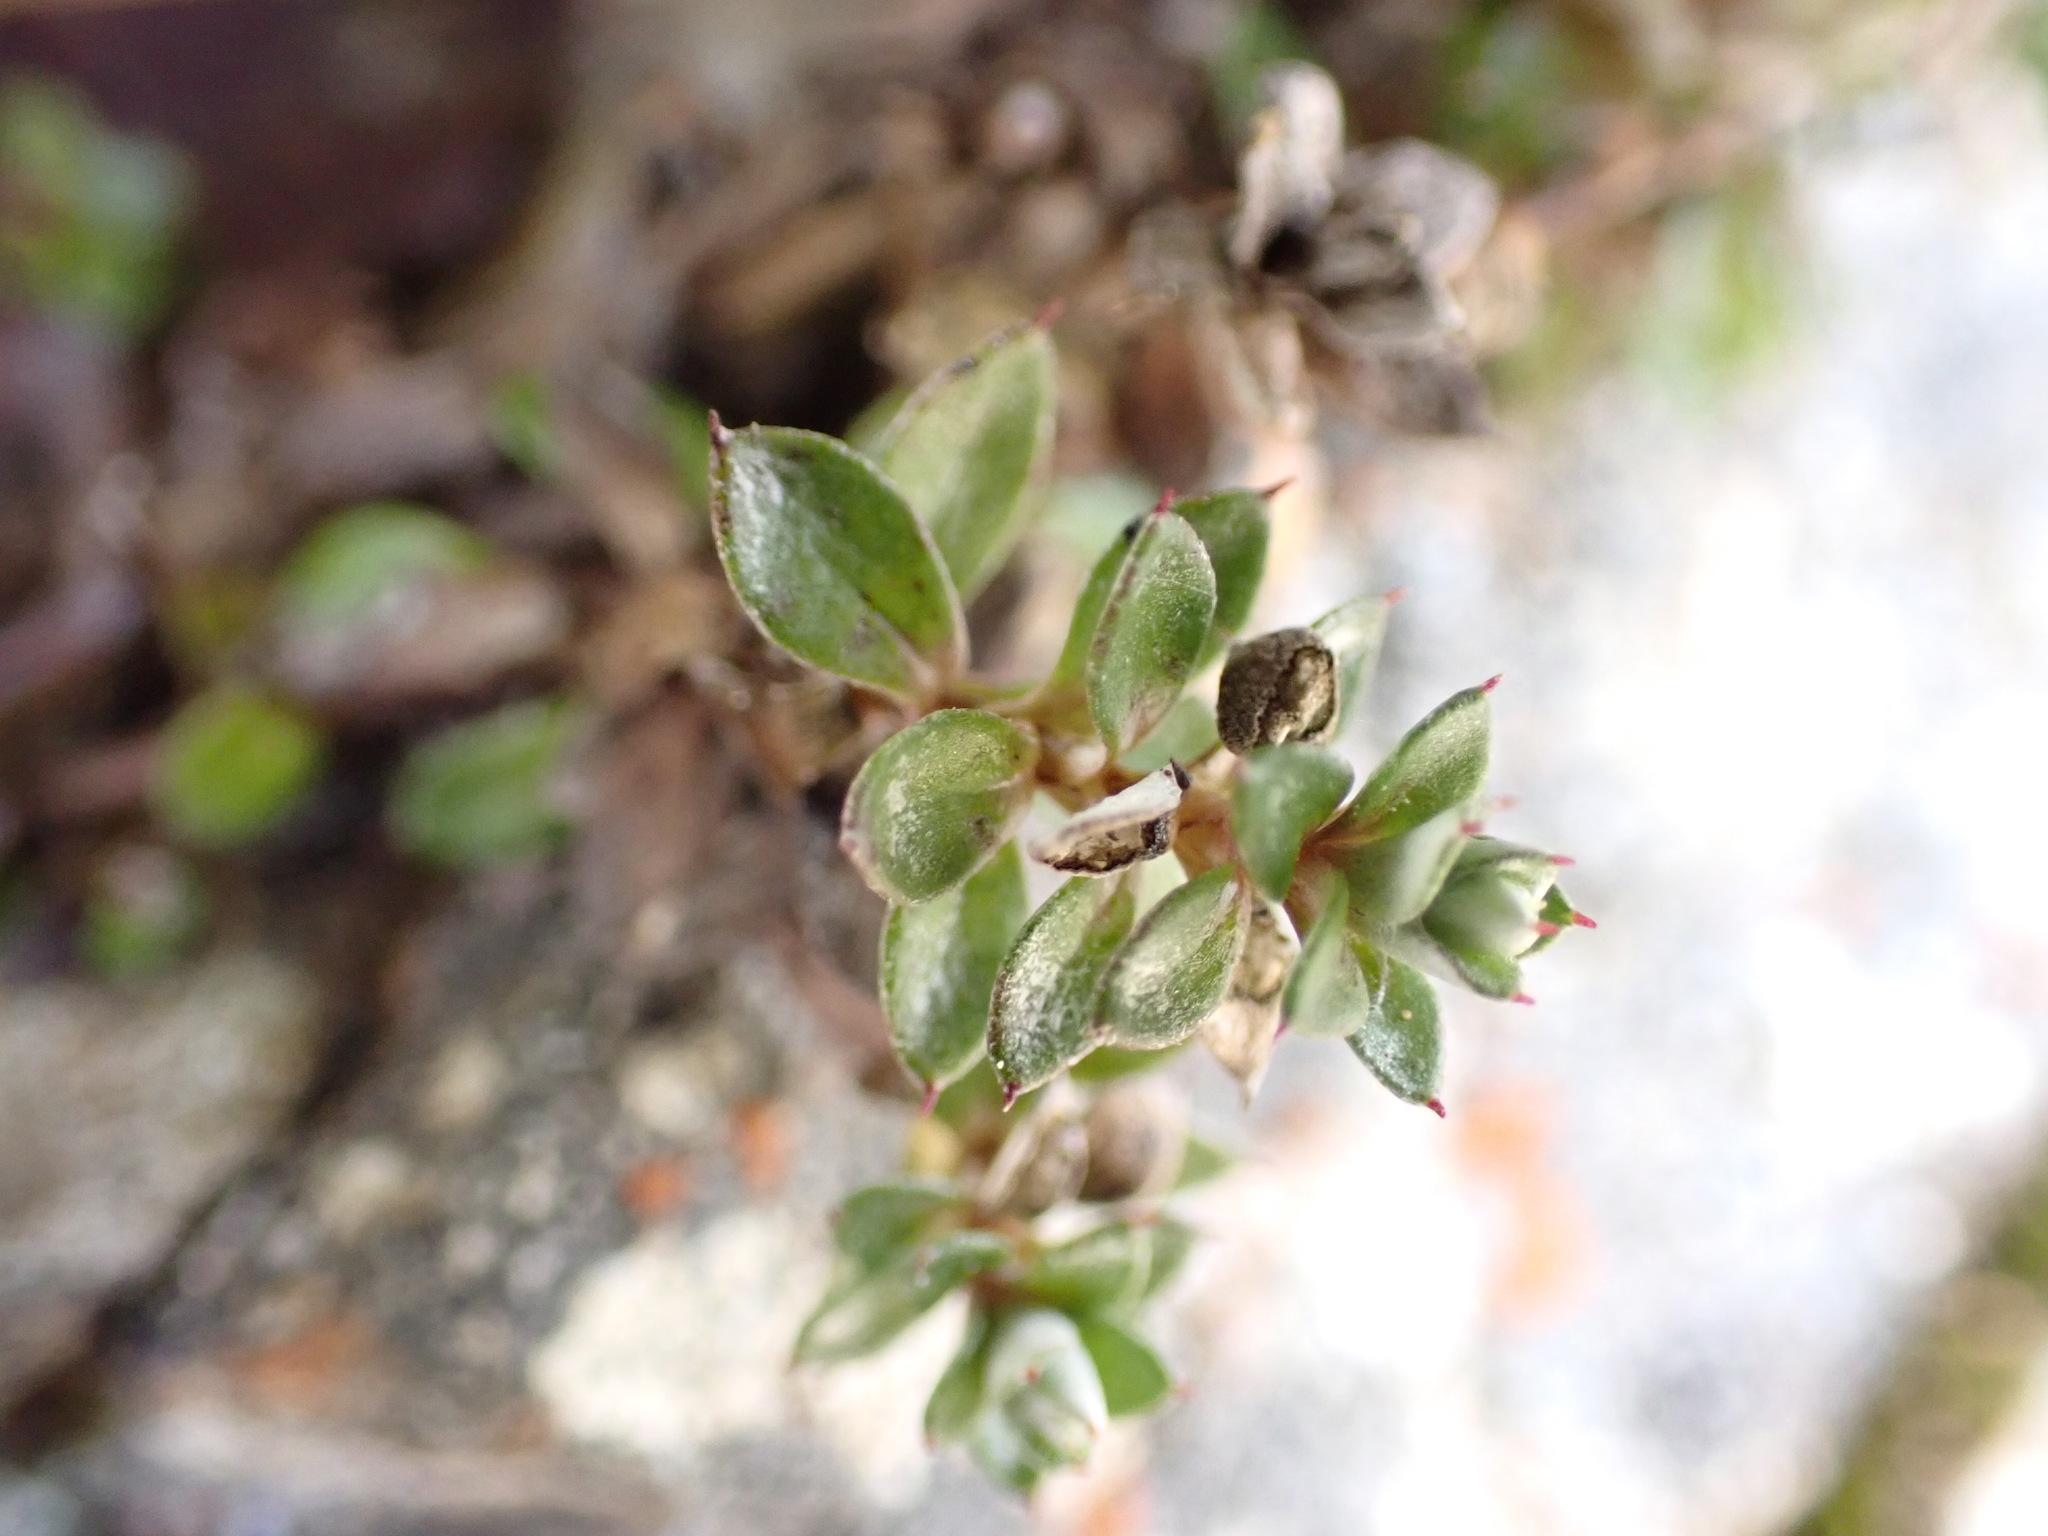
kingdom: Plantae
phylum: Tracheophyta
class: Magnoliopsida
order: Asterales
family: Asteraceae
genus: Anaphalioides
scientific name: Anaphalioides bellidioides
